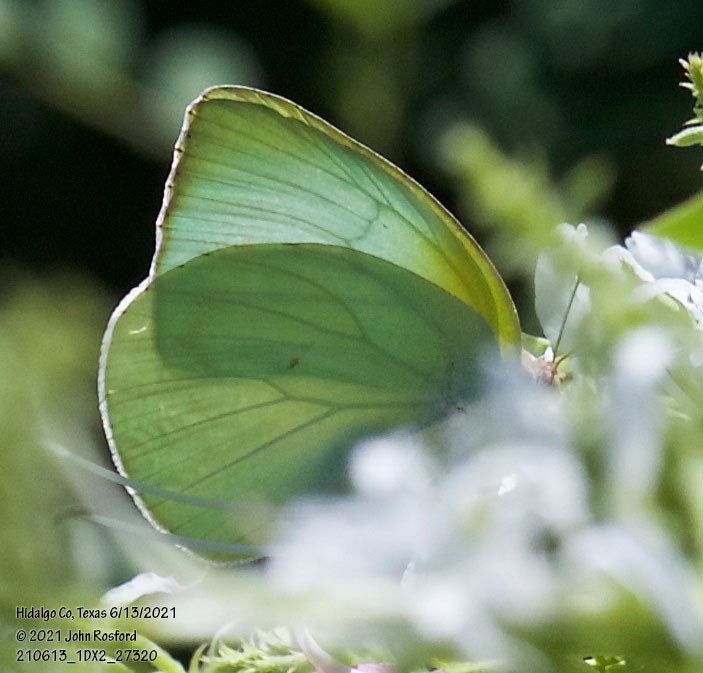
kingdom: Animalia
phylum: Arthropoda
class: Insecta
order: Lepidoptera
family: Pieridae
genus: Kricogonia
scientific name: Kricogonia lyside
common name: Guayacan sulphur,
